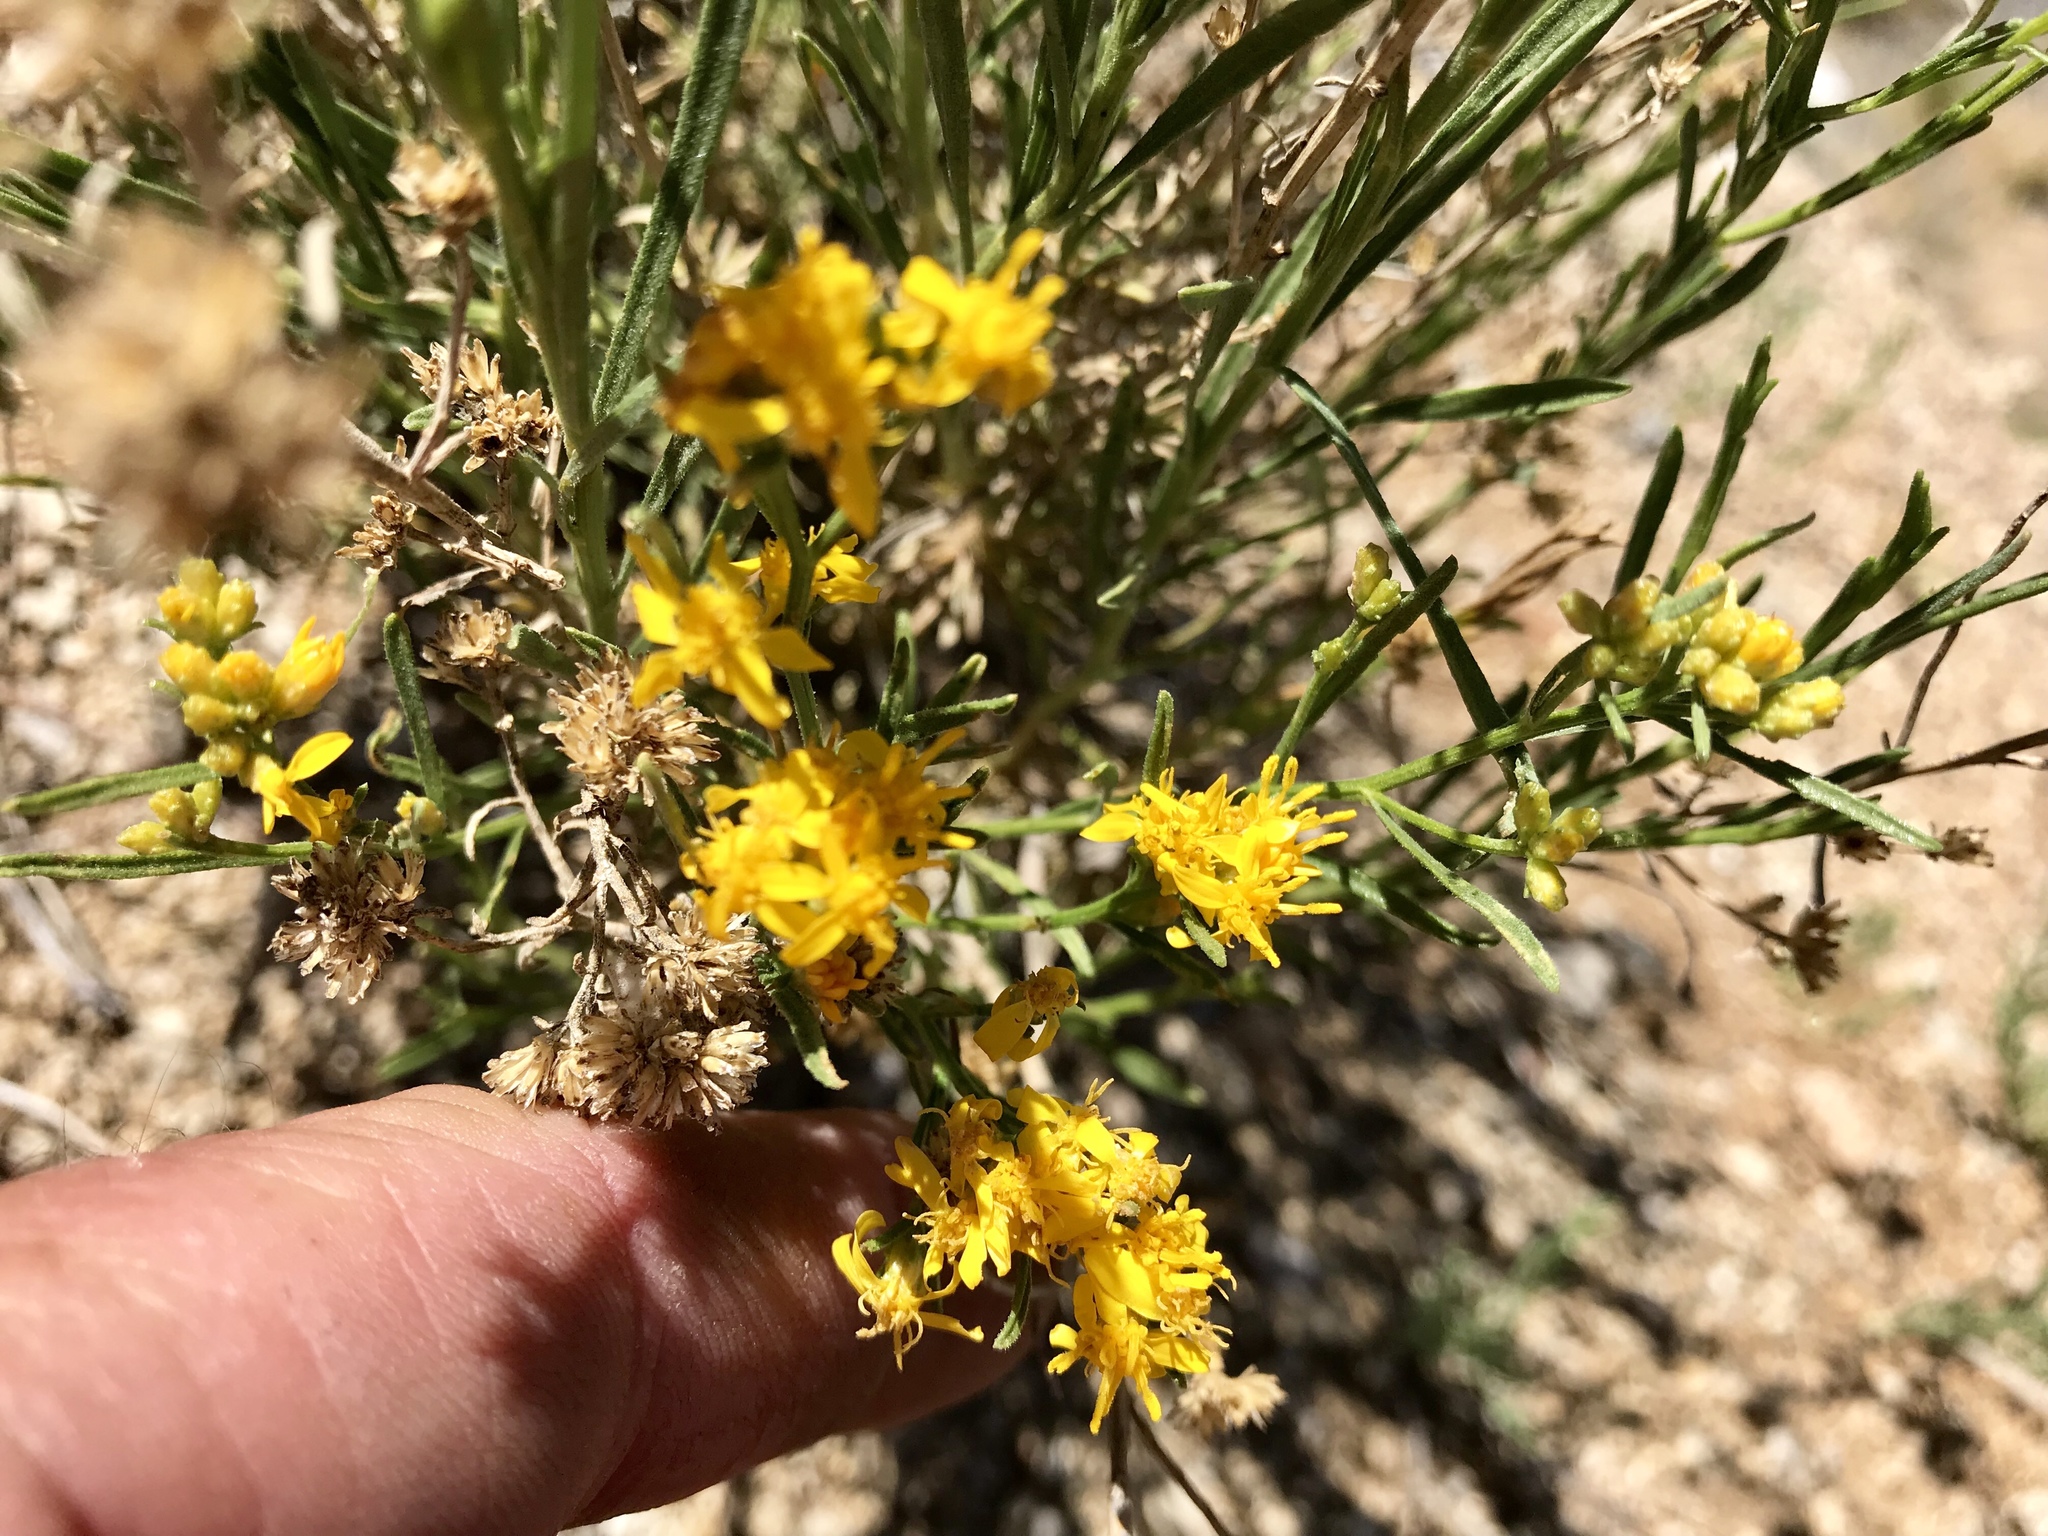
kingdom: Plantae
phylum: Tracheophyta
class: Magnoliopsida
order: Asterales
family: Asteraceae
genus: Gutierrezia
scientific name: Gutierrezia sarothrae
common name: Broom snakeweed
